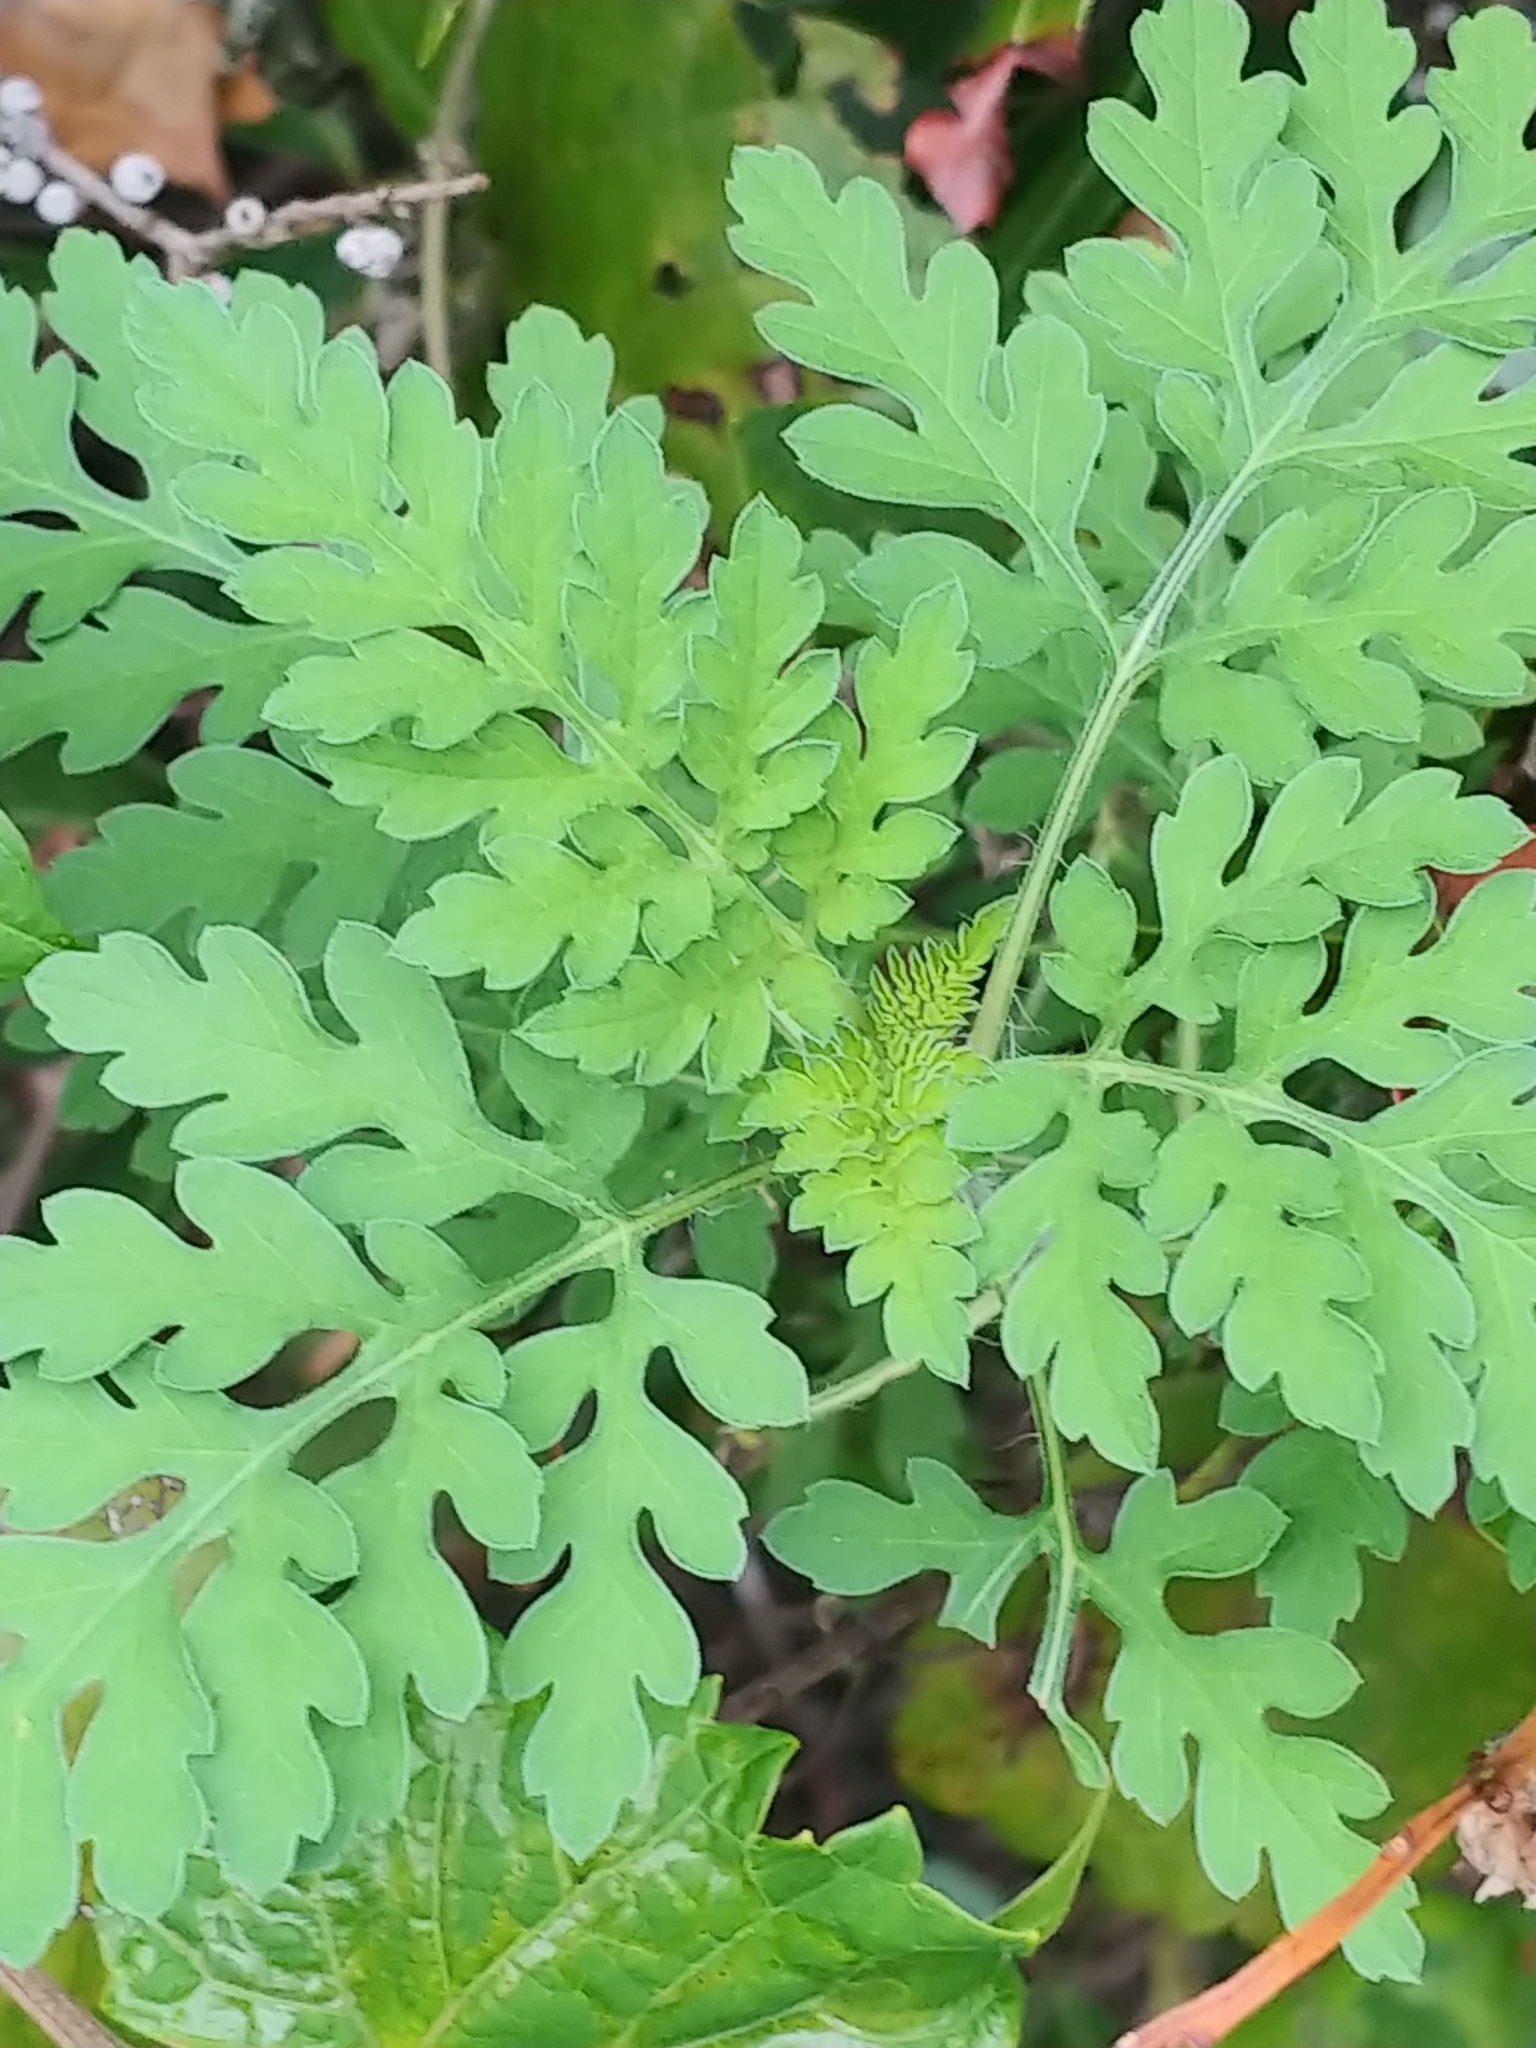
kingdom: Plantae
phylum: Tracheophyta
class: Magnoliopsida
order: Asterales
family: Asteraceae
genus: Ambrosia
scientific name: Ambrosia artemisiifolia
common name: Annual ragweed
